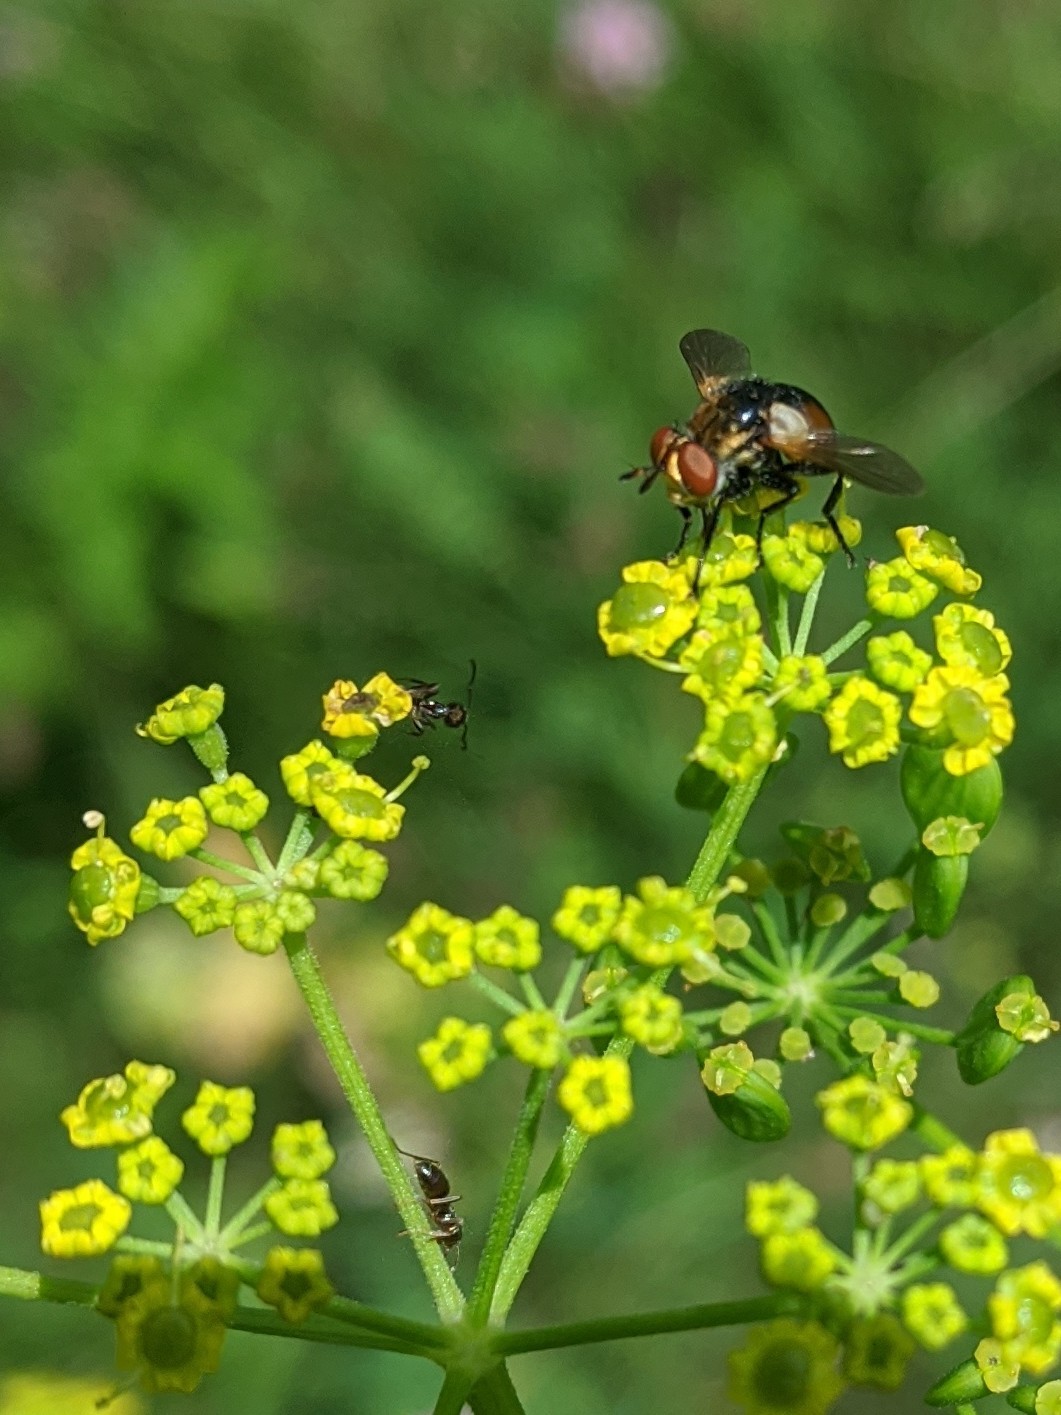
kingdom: Animalia
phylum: Arthropoda
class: Insecta
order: Diptera
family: Tachinidae
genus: Gymnosoma
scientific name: Gymnosoma
